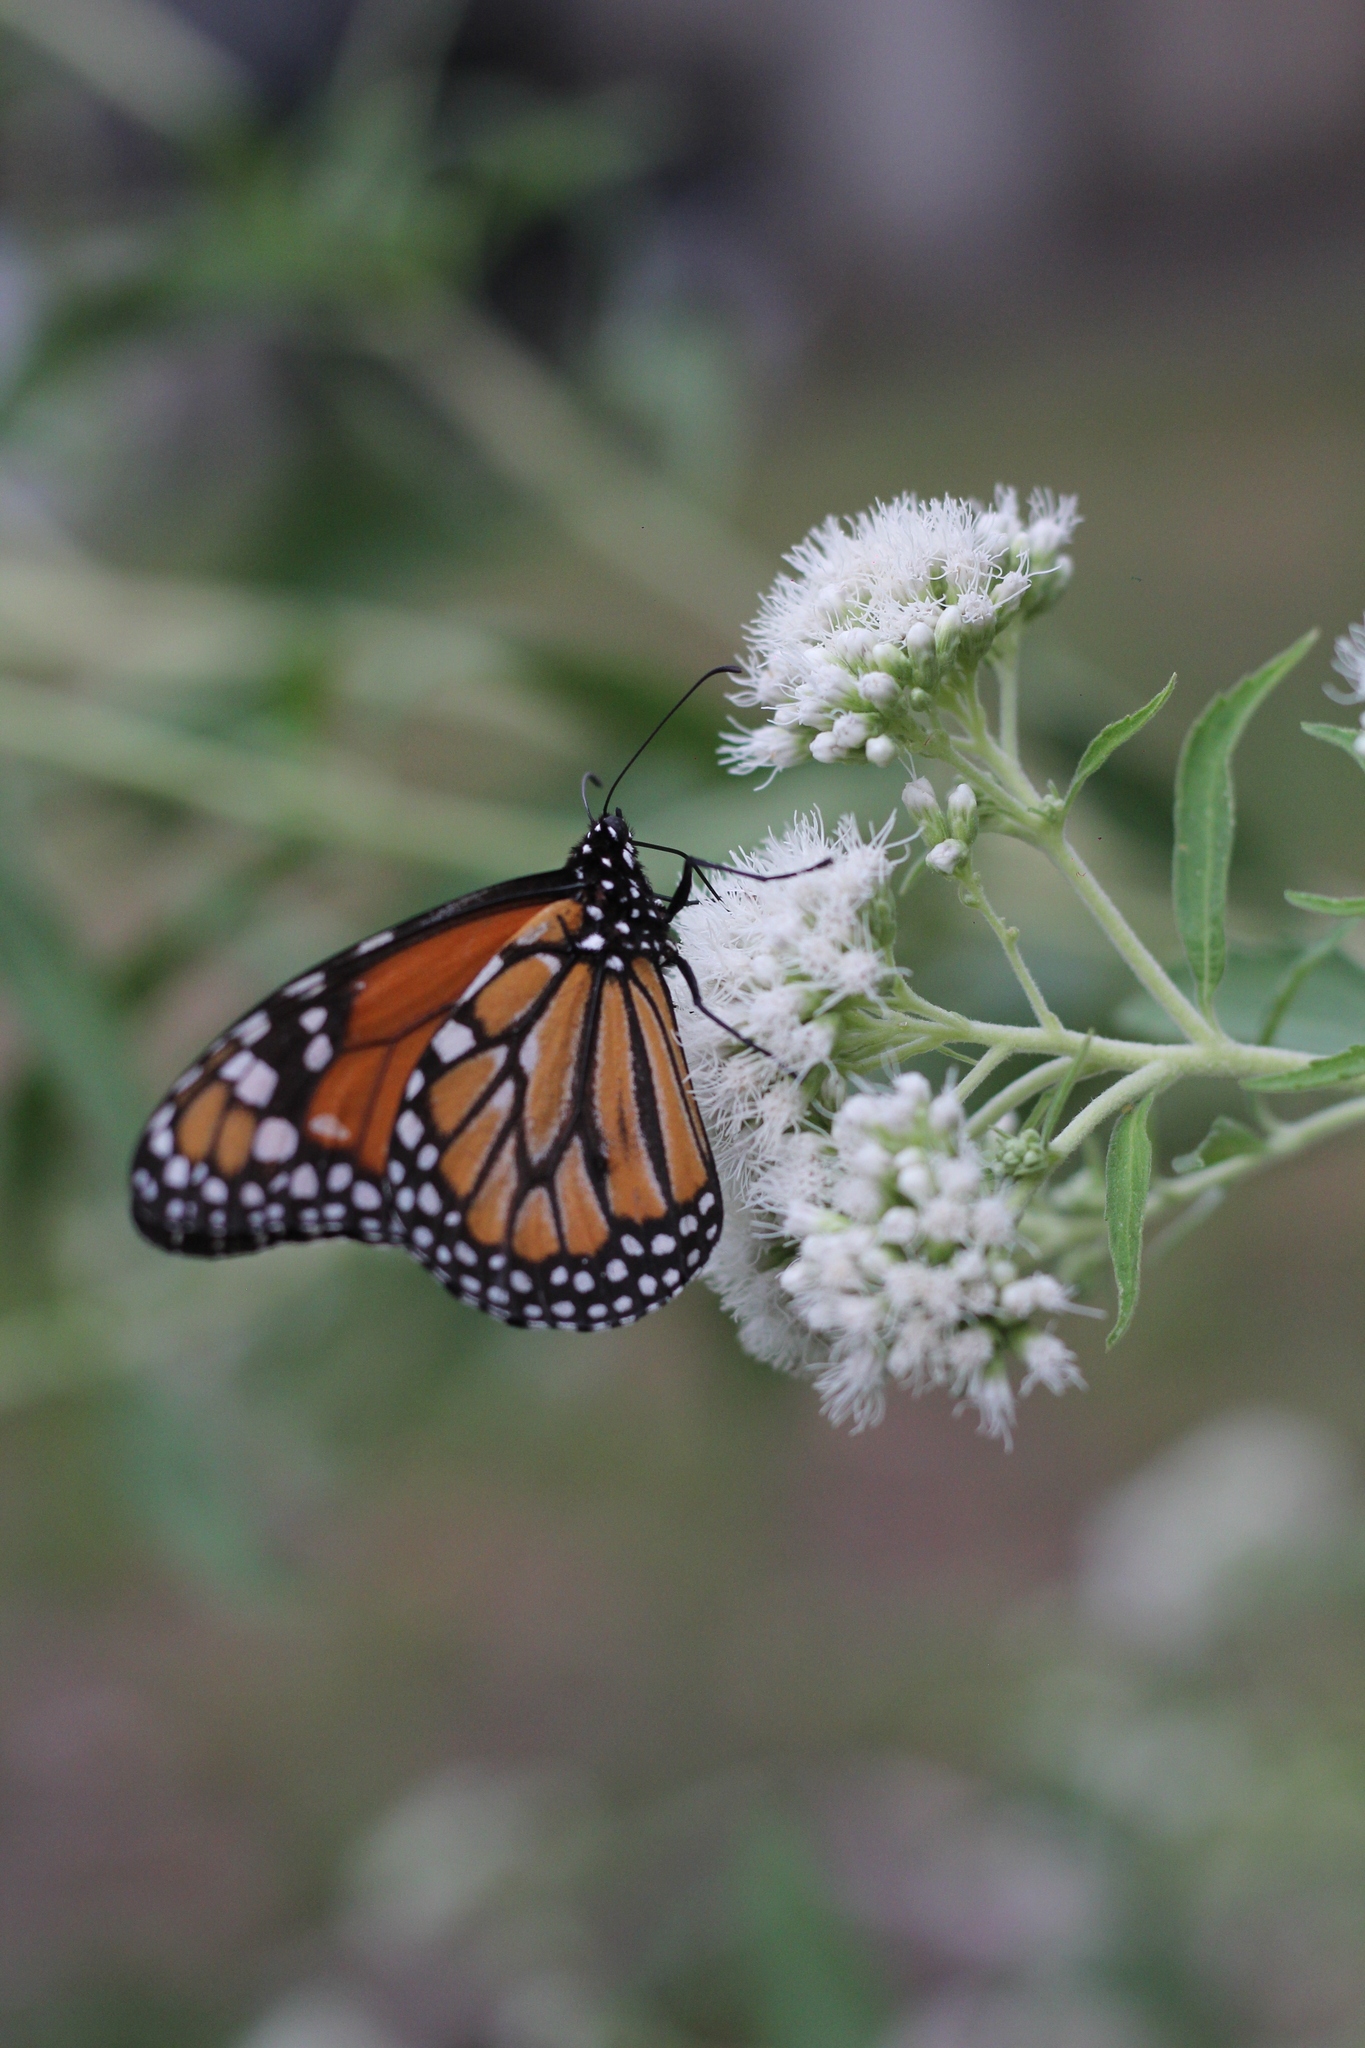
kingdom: Animalia
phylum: Arthropoda
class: Insecta
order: Lepidoptera
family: Nymphalidae
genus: Danaus
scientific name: Danaus erippus
